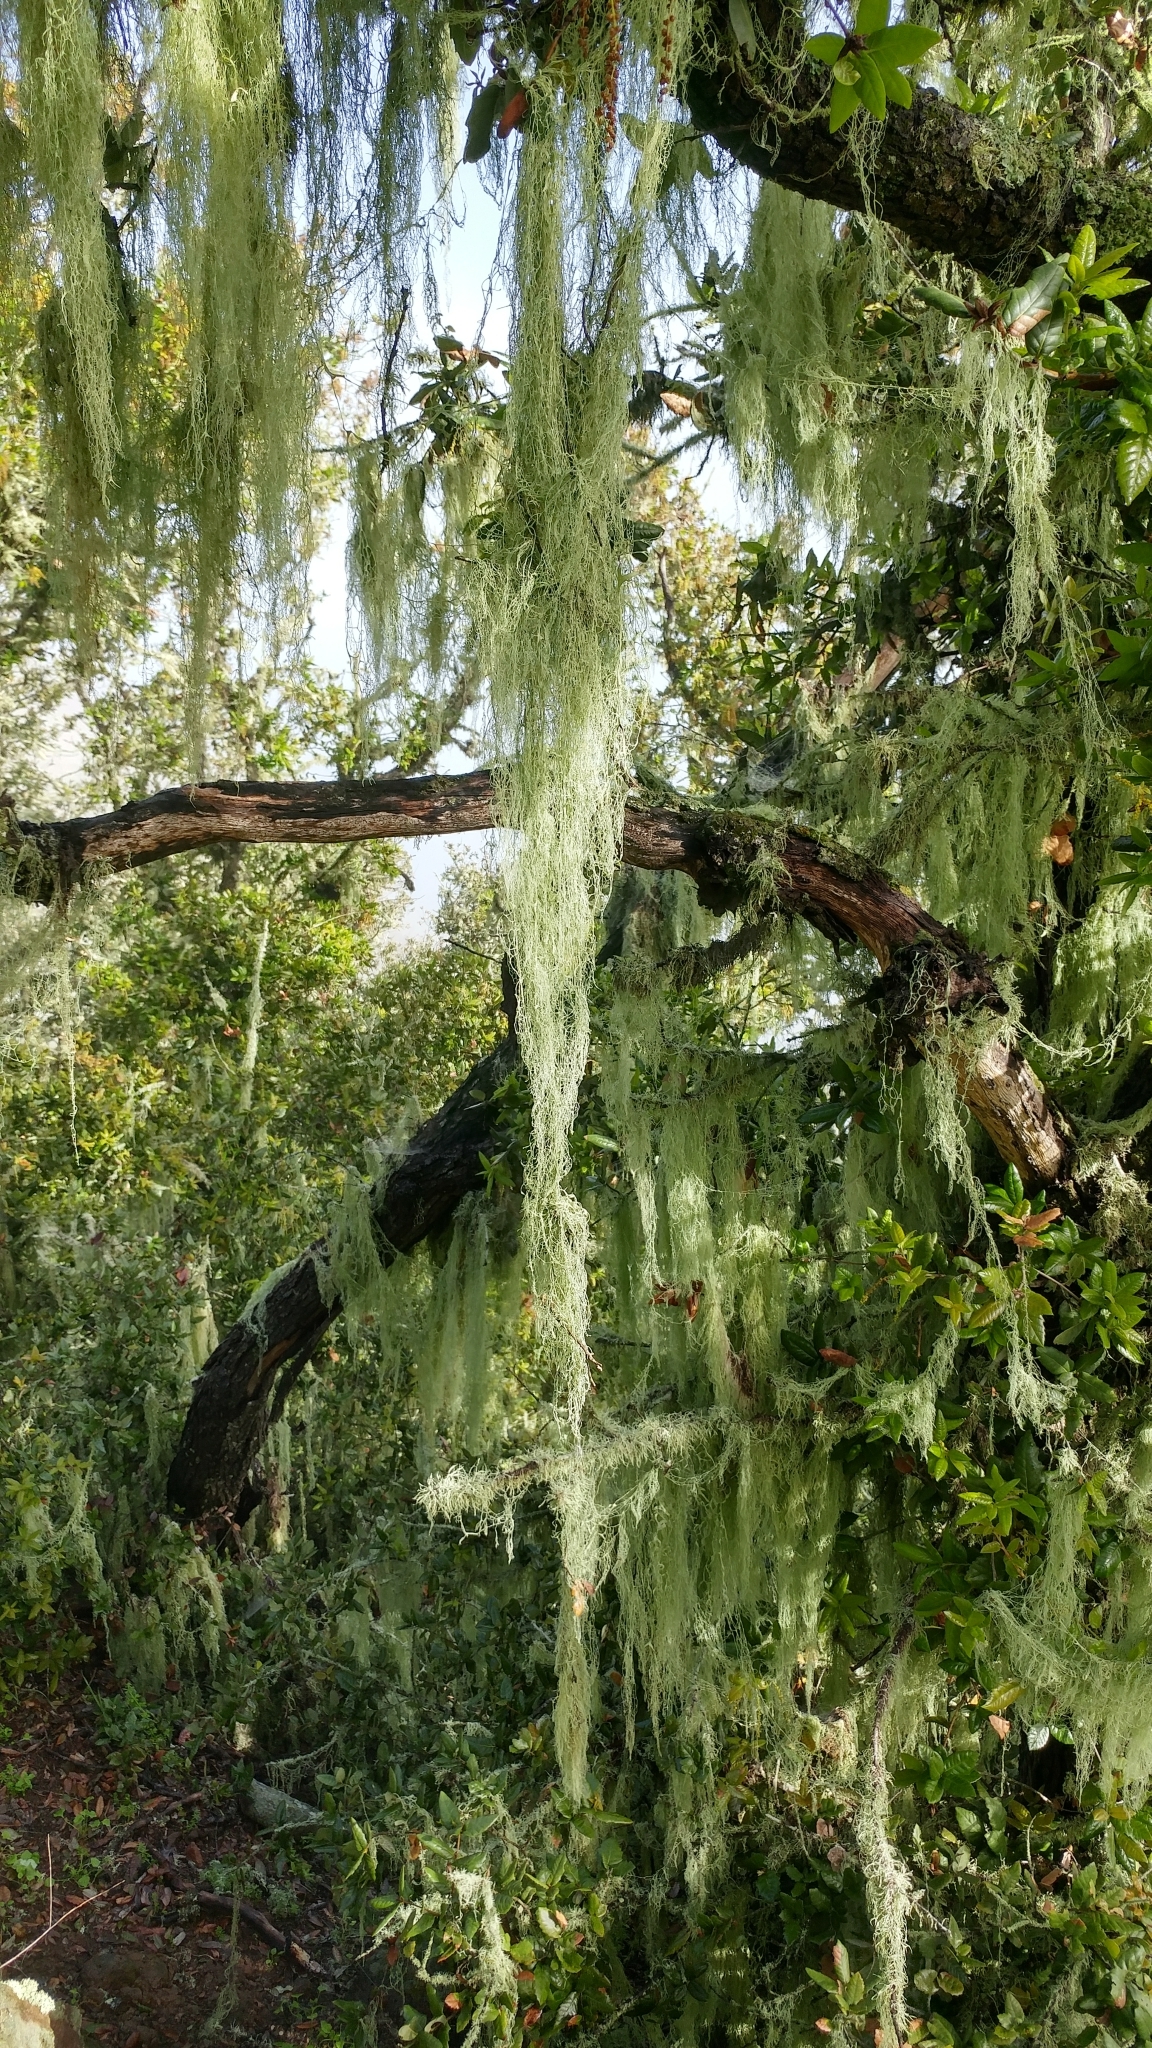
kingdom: Fungi
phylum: Ascomycota
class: Lecanoromycetes
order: Lecanorales
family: Ramalinaceae
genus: Ramalina
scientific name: Ramalina menziesii
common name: Lace lichen
